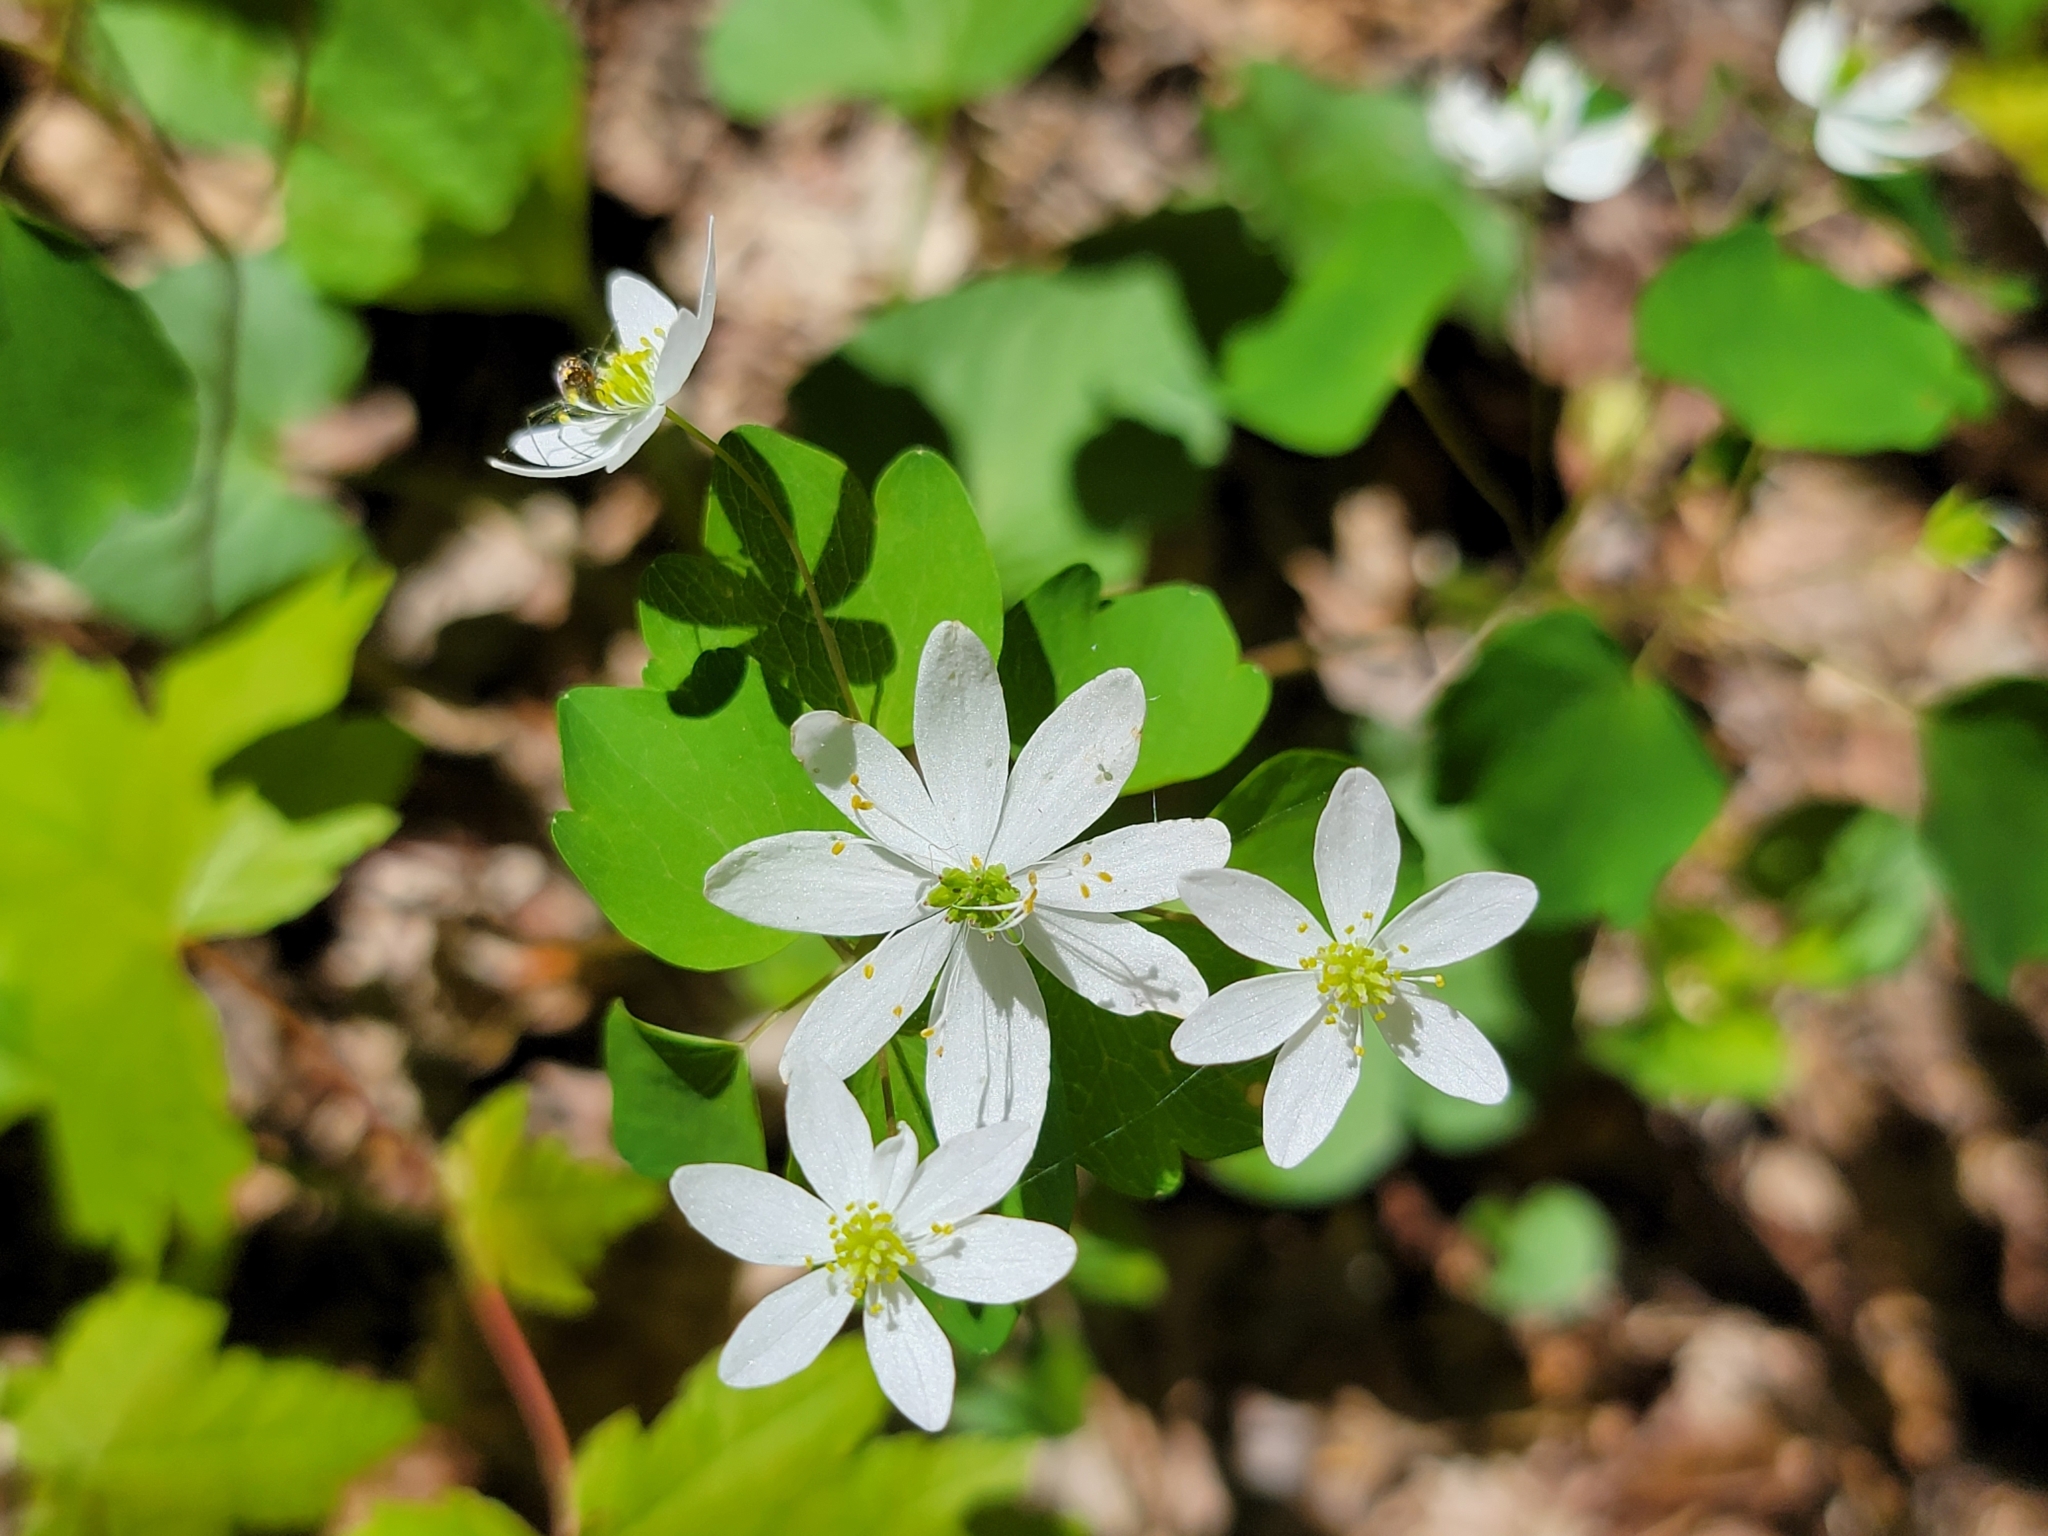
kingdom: Plantae
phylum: Tracheophyta
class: Magnoliopsida
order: Ranunculales
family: Ranunculaceae
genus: Thalictrum
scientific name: Thalictrum thalictroides
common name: Rue-anemone
